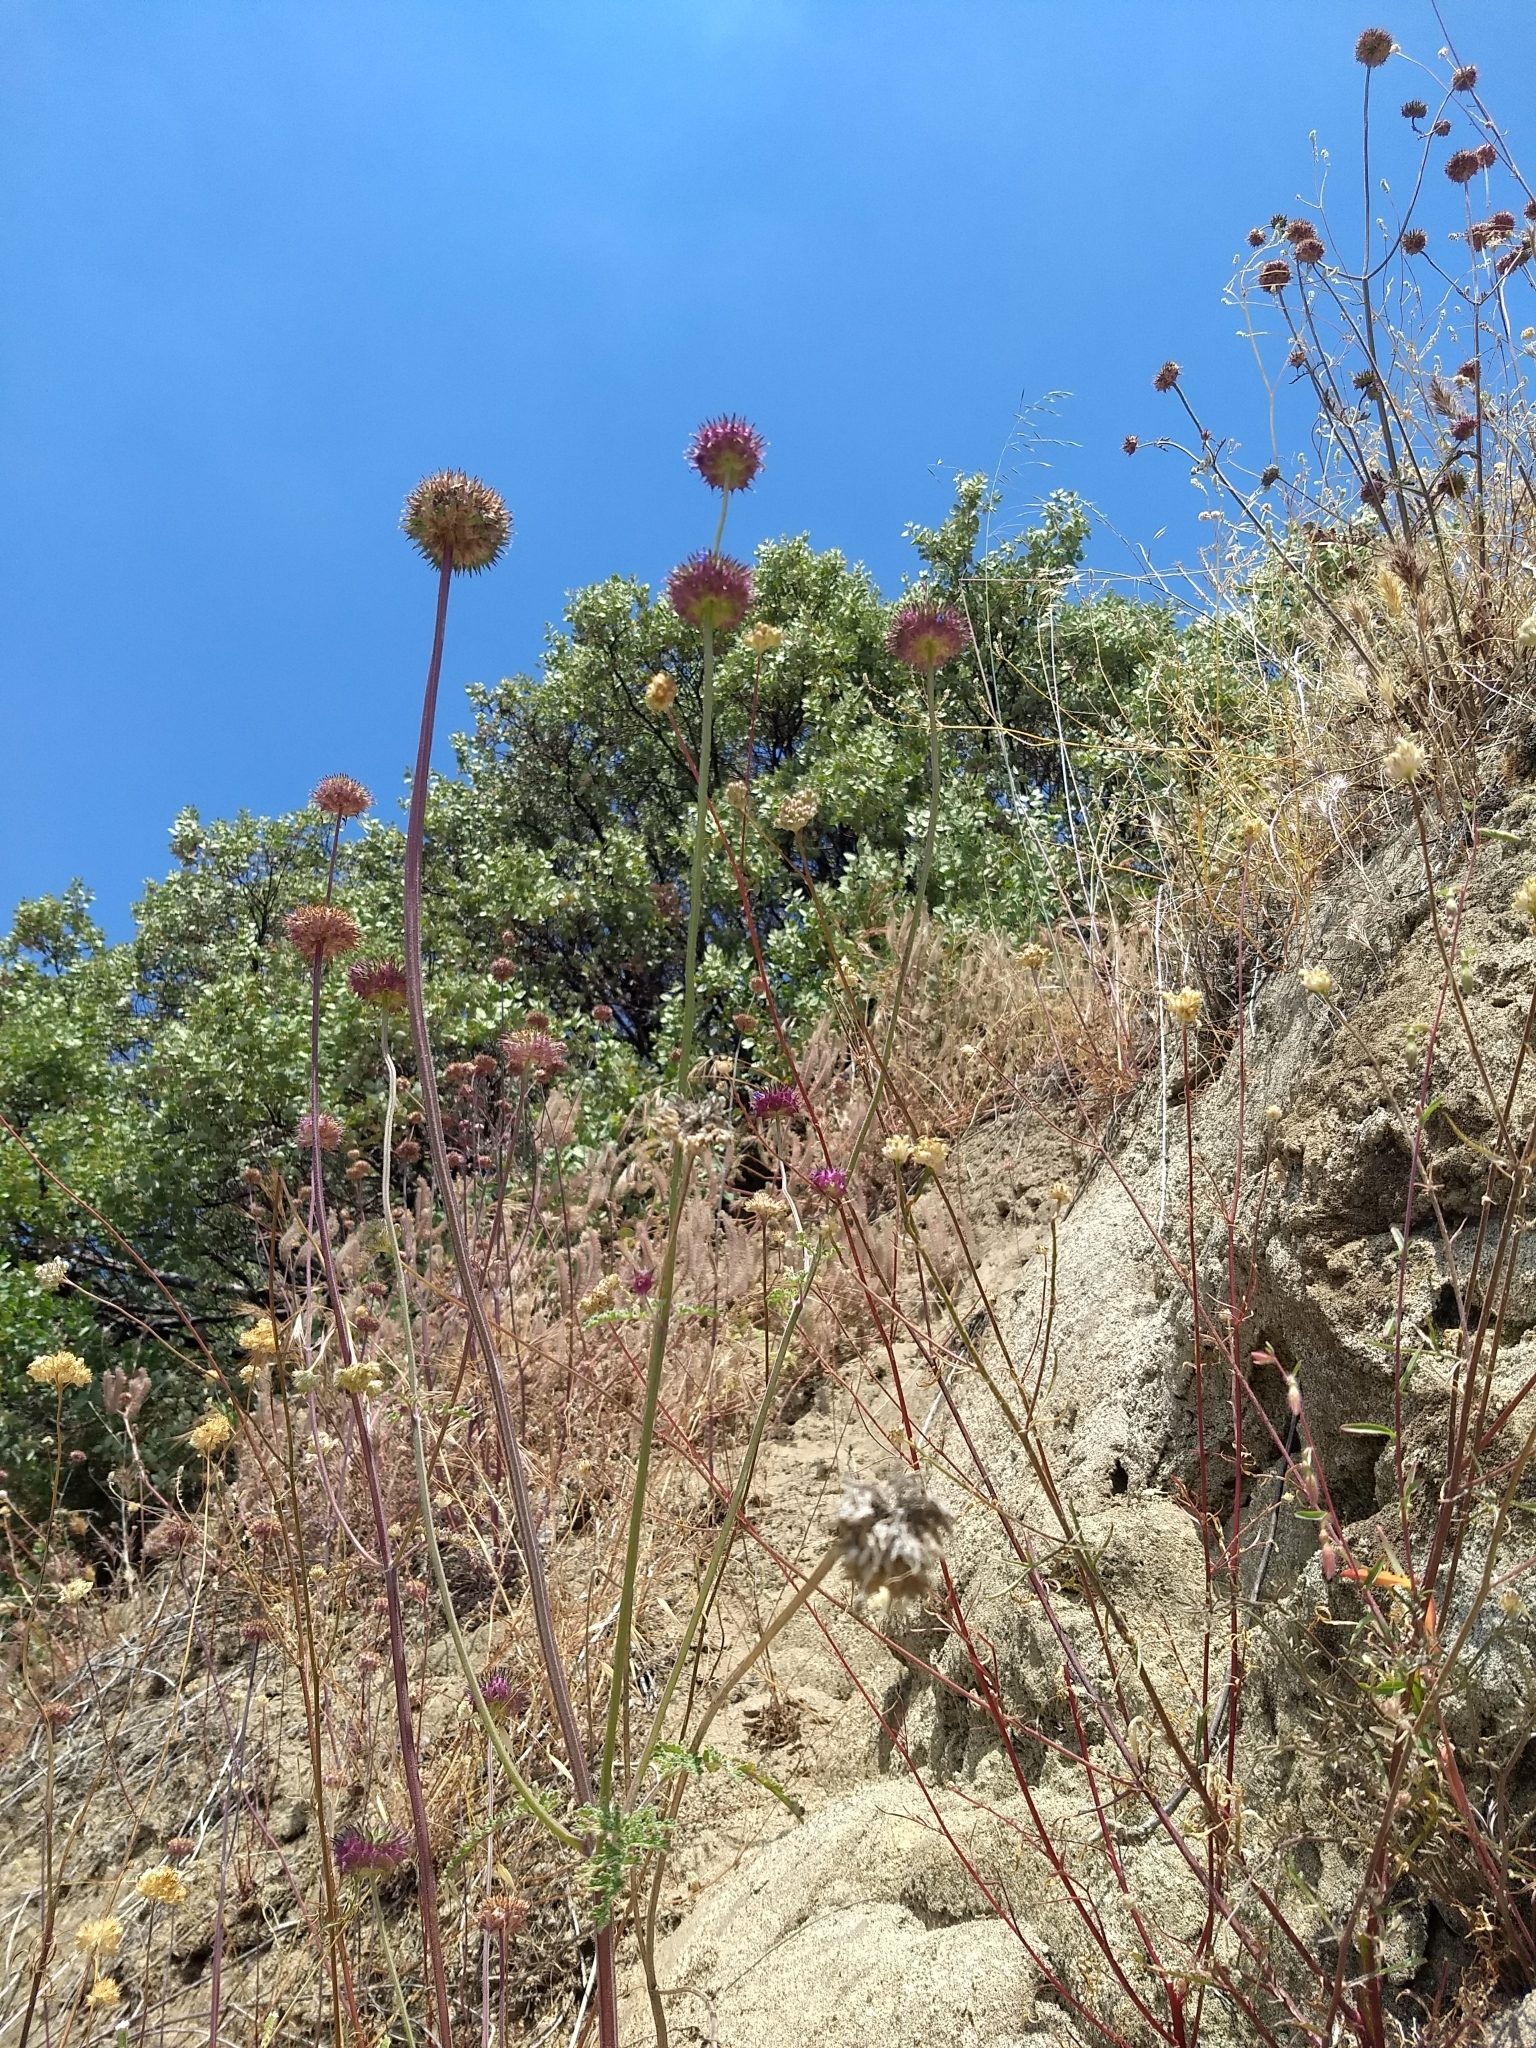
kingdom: Plantae
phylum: Tracheophyta
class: Magnoliopsida
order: Lamiales
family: Lamiaceae
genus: Salvia
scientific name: Salvia columbariae
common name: Chia
